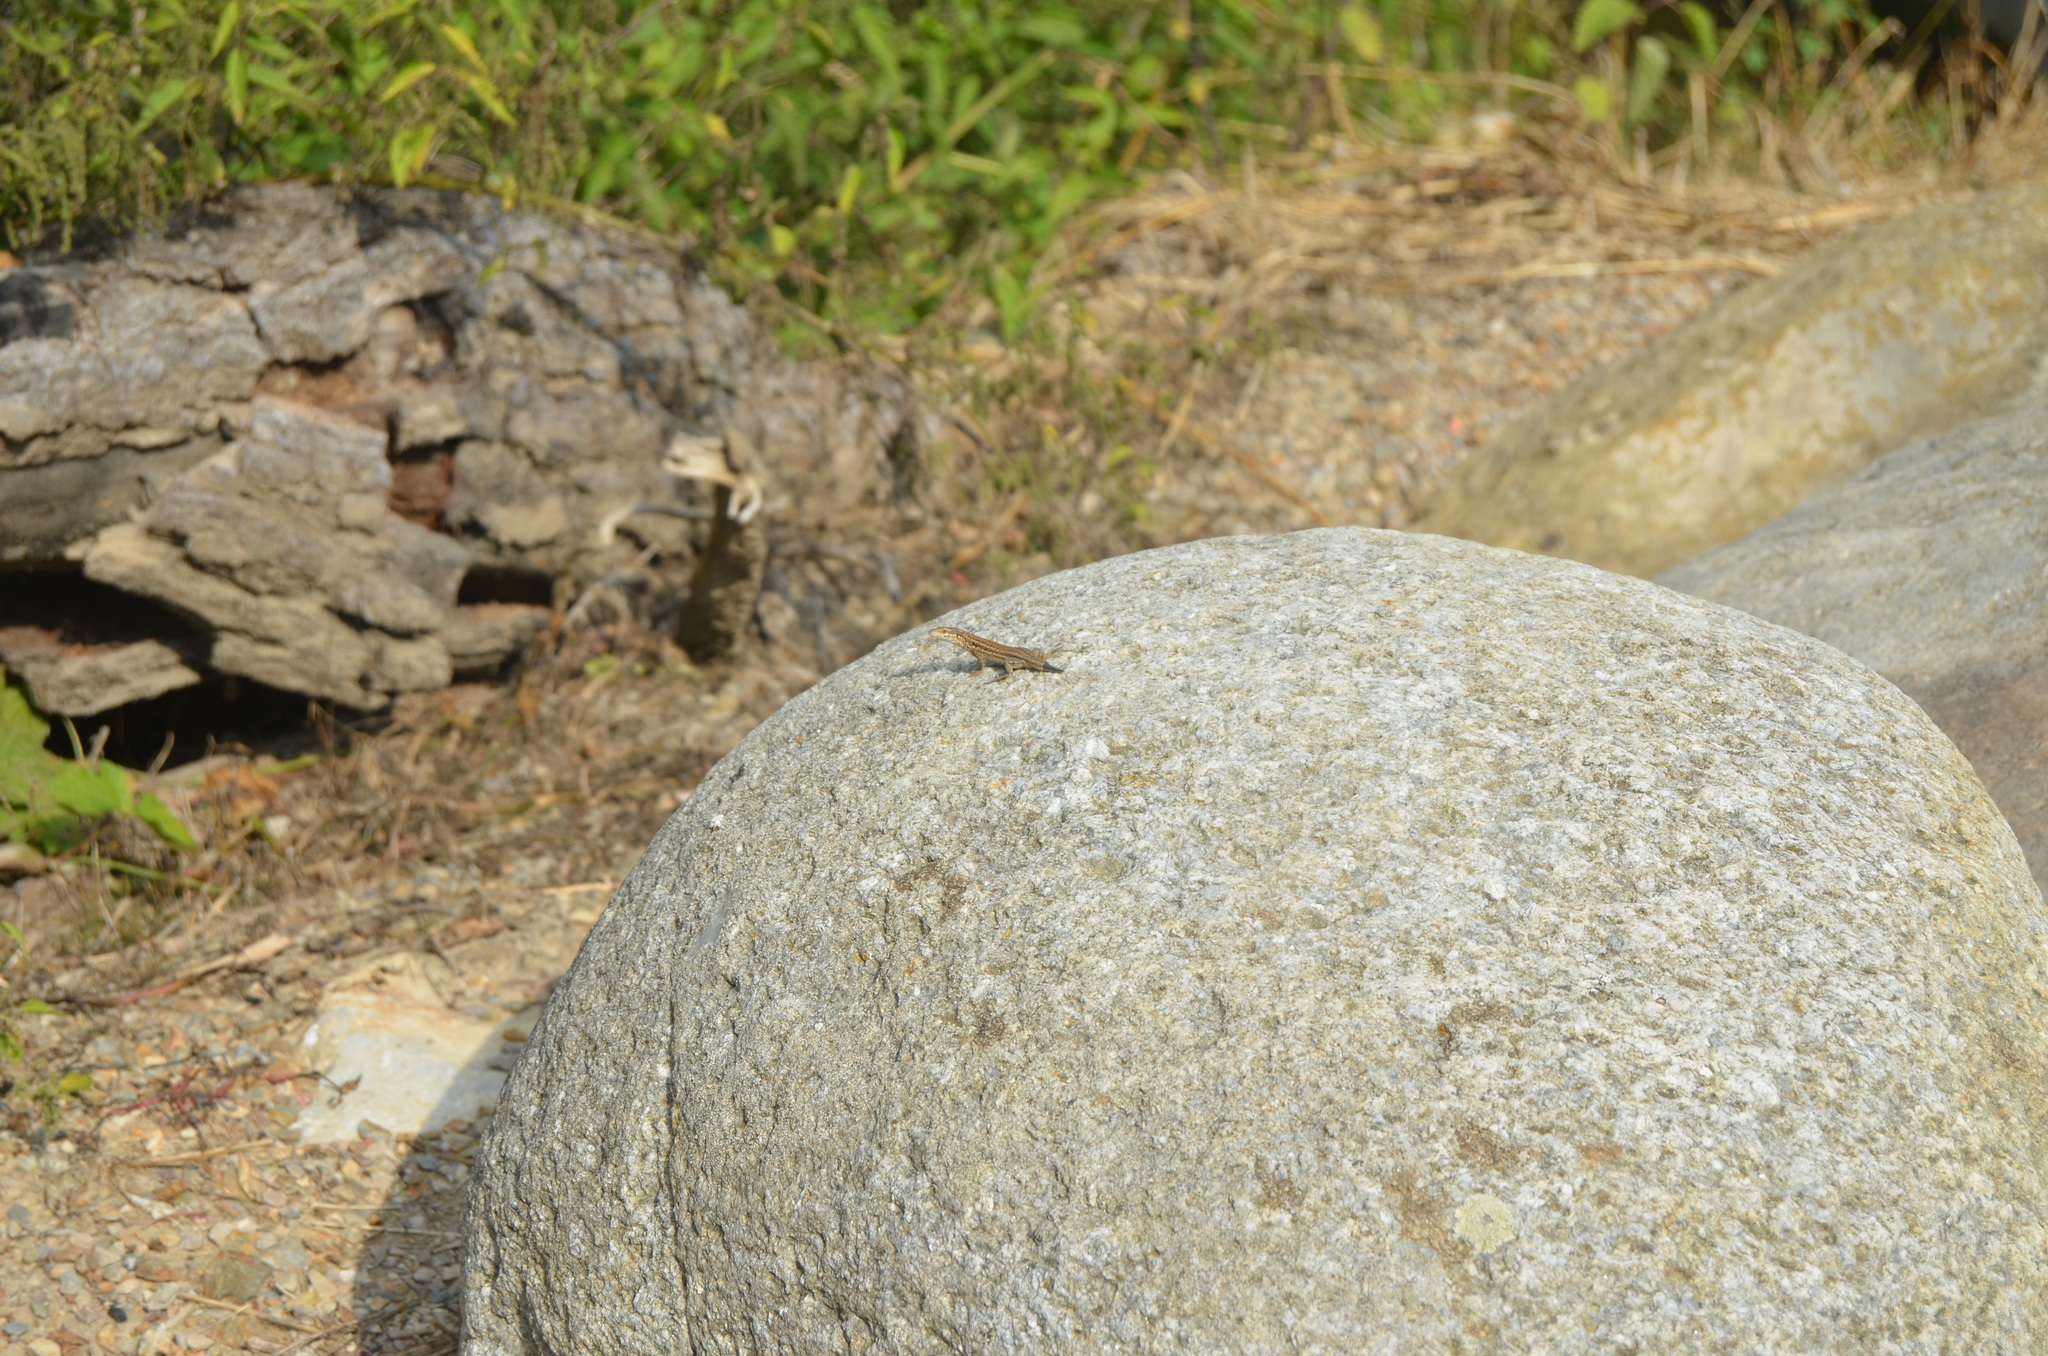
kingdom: Animalia
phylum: Chordata
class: Squamata
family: Lacertidae
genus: Podarcis
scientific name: Podarcis liolepis
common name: Catalonian wall lizard
